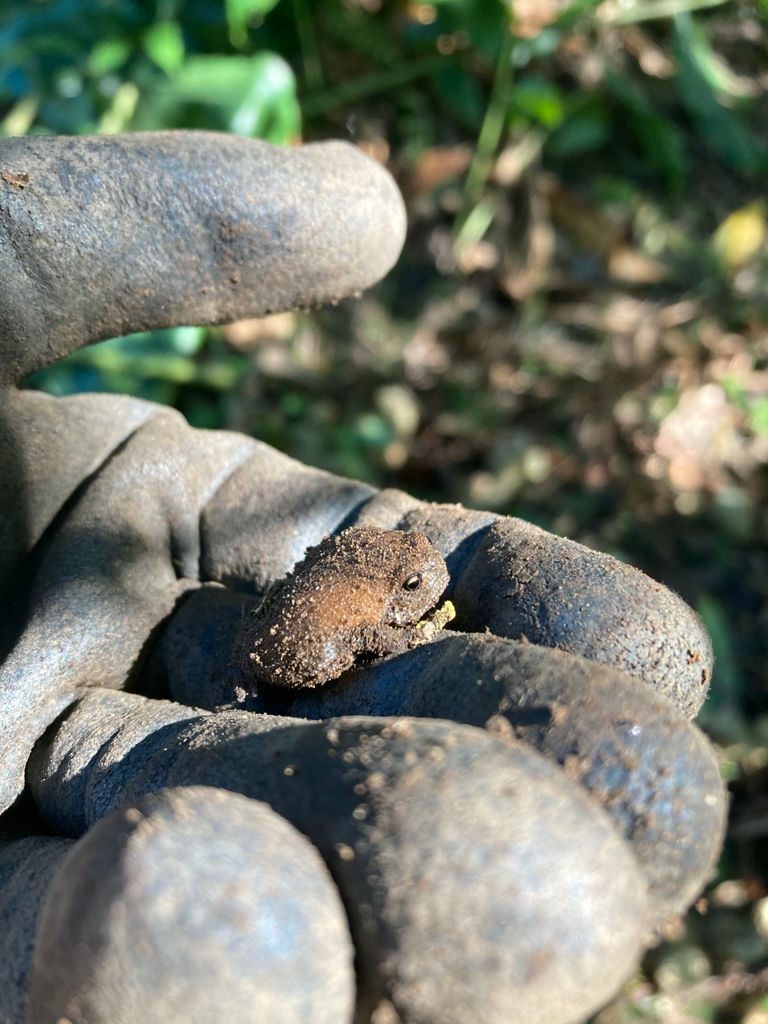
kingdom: Animalia
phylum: Chordata
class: Amphibia
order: Anura
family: Brevicipitidae
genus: Breviceps
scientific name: Breviceps verrucosus
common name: Plaintive rain frog
